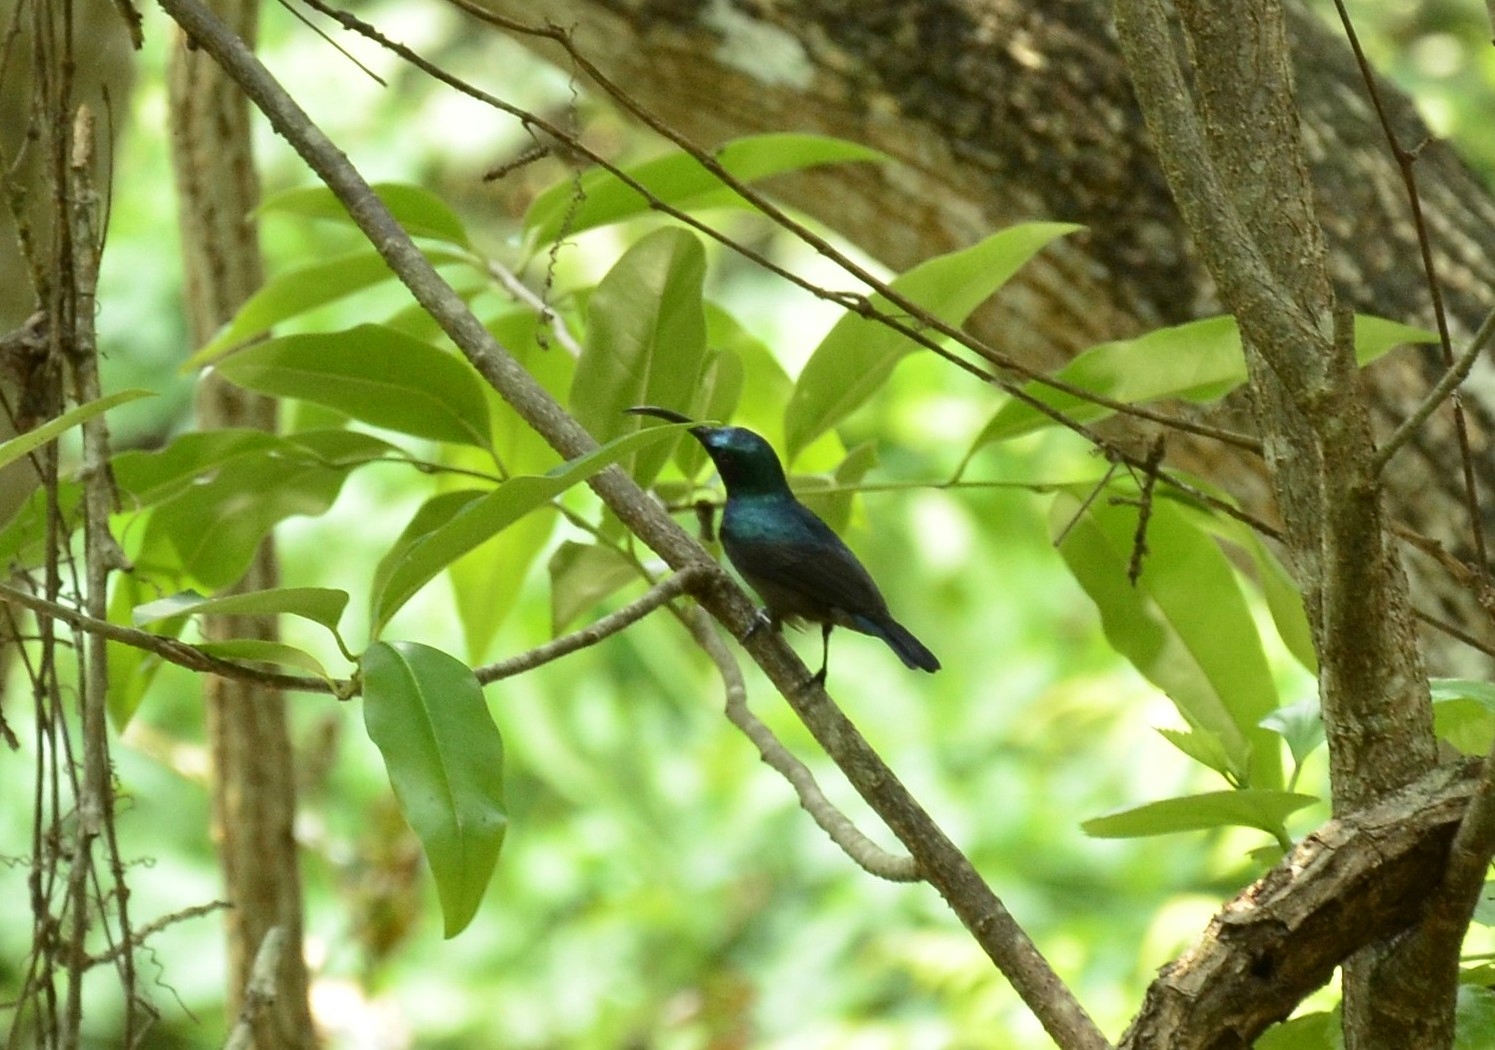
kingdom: Animalia
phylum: Chordata
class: Aves
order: Passeriformes
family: Nectariniidae
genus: Cinnyris
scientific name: Cinnyris lotenius
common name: Loten's sunbird
